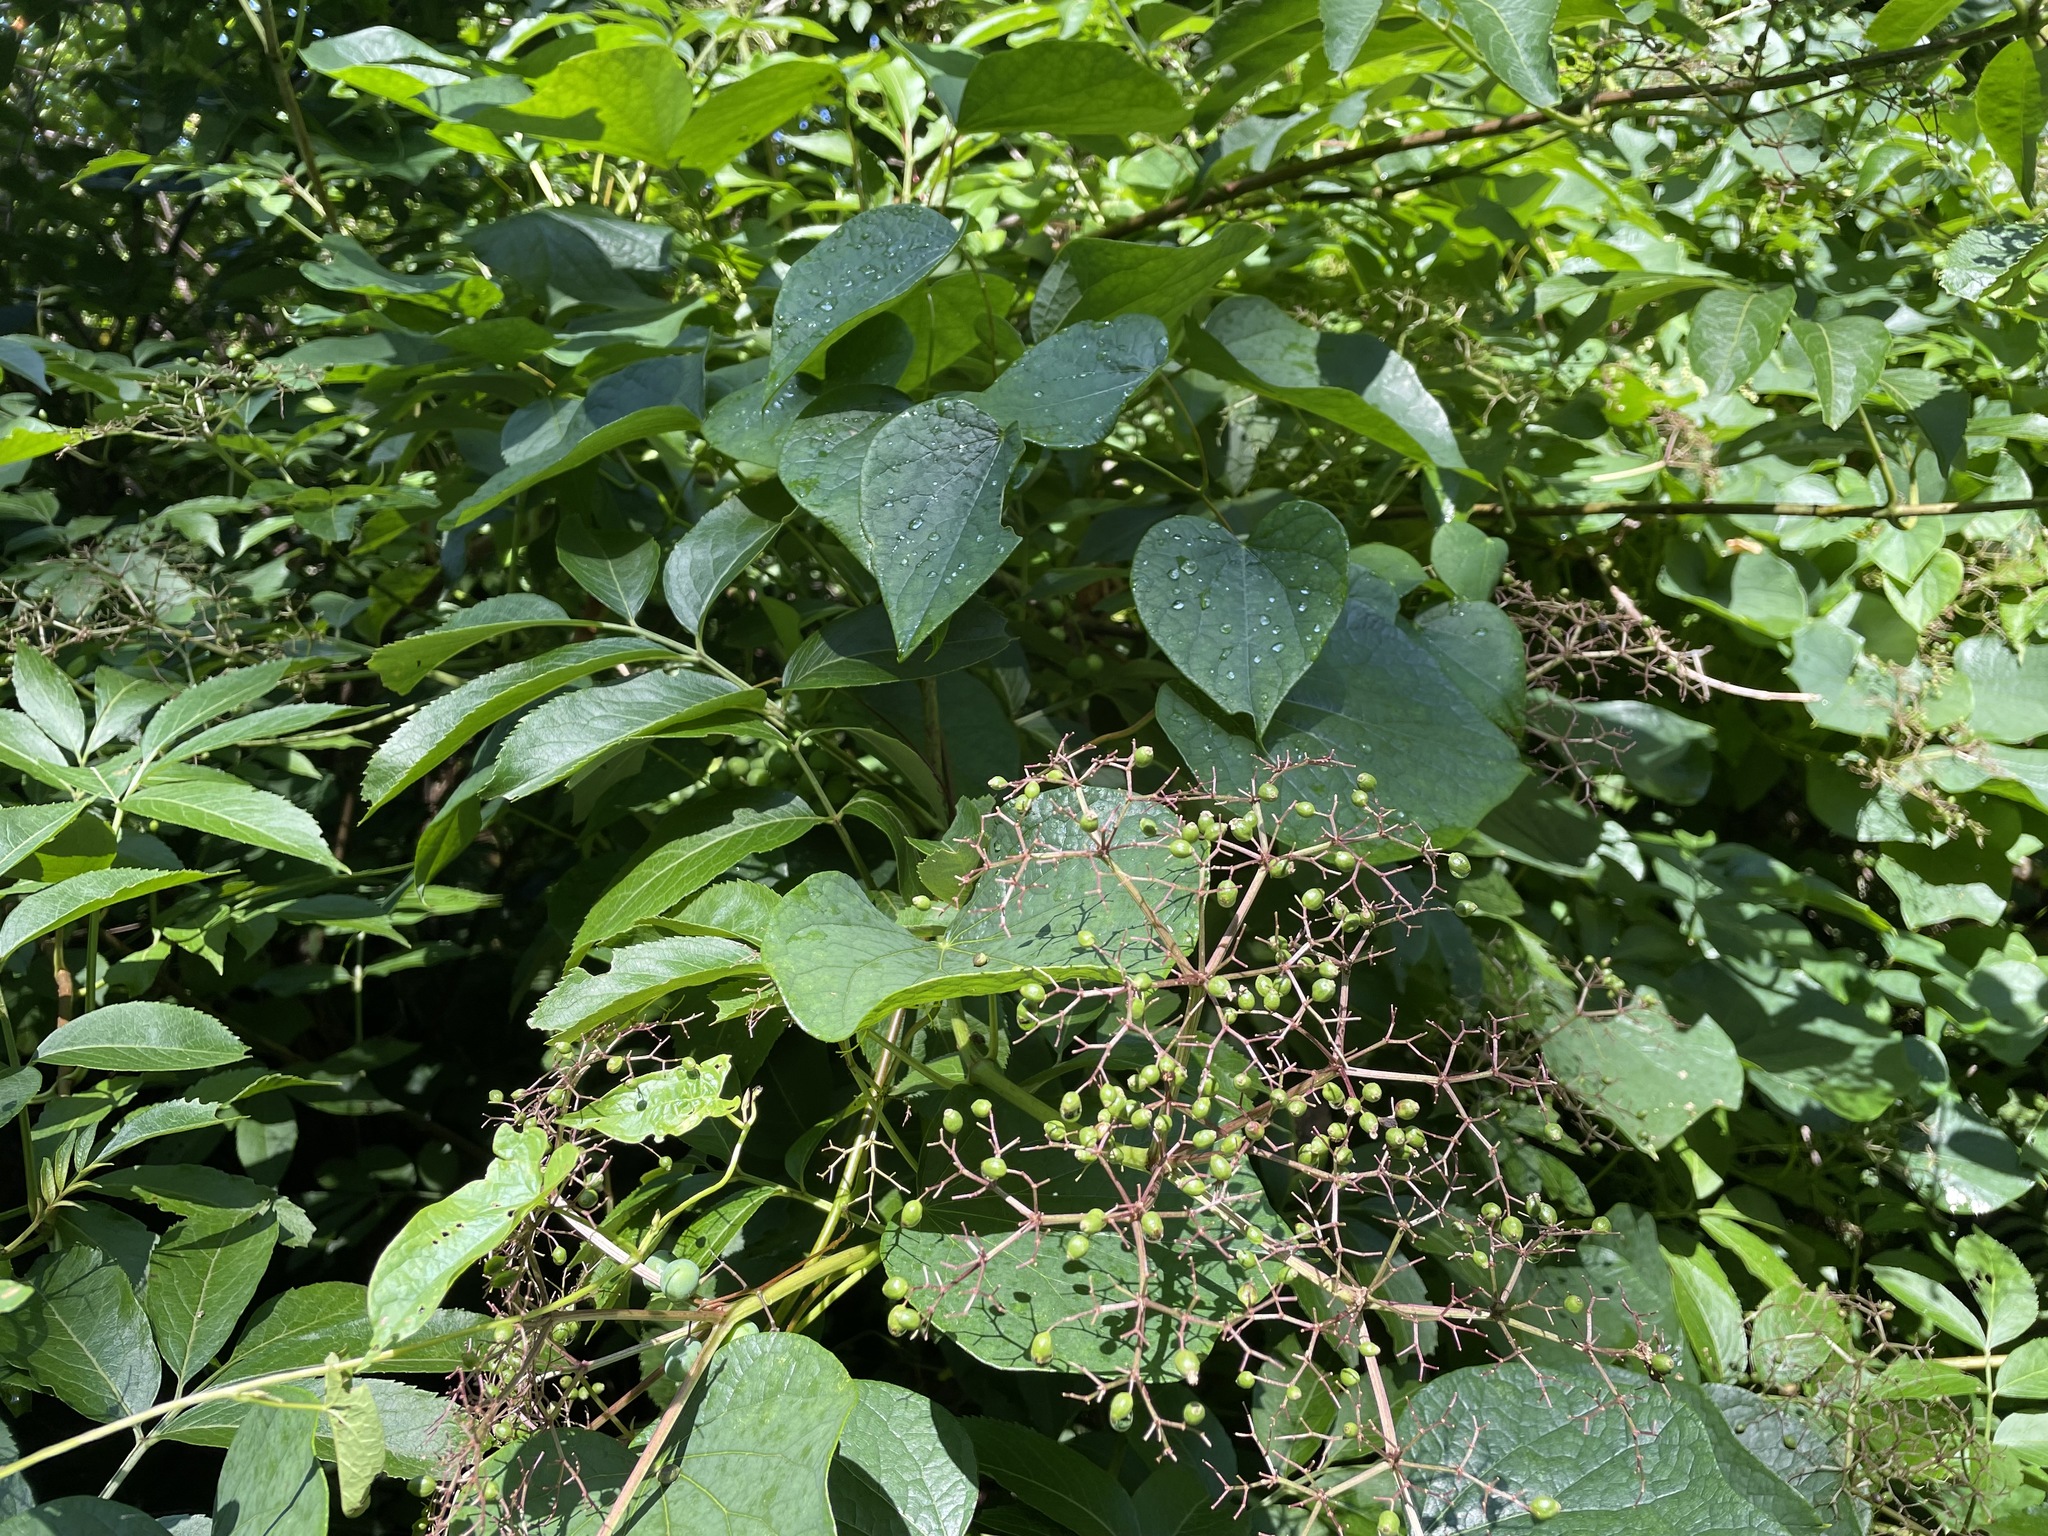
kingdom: Plantae
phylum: Tracheophyta
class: Magnoliopsida
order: Dipsacales
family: Viburnaceae
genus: Sambucus
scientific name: Sambucus canadensis
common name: American elder
